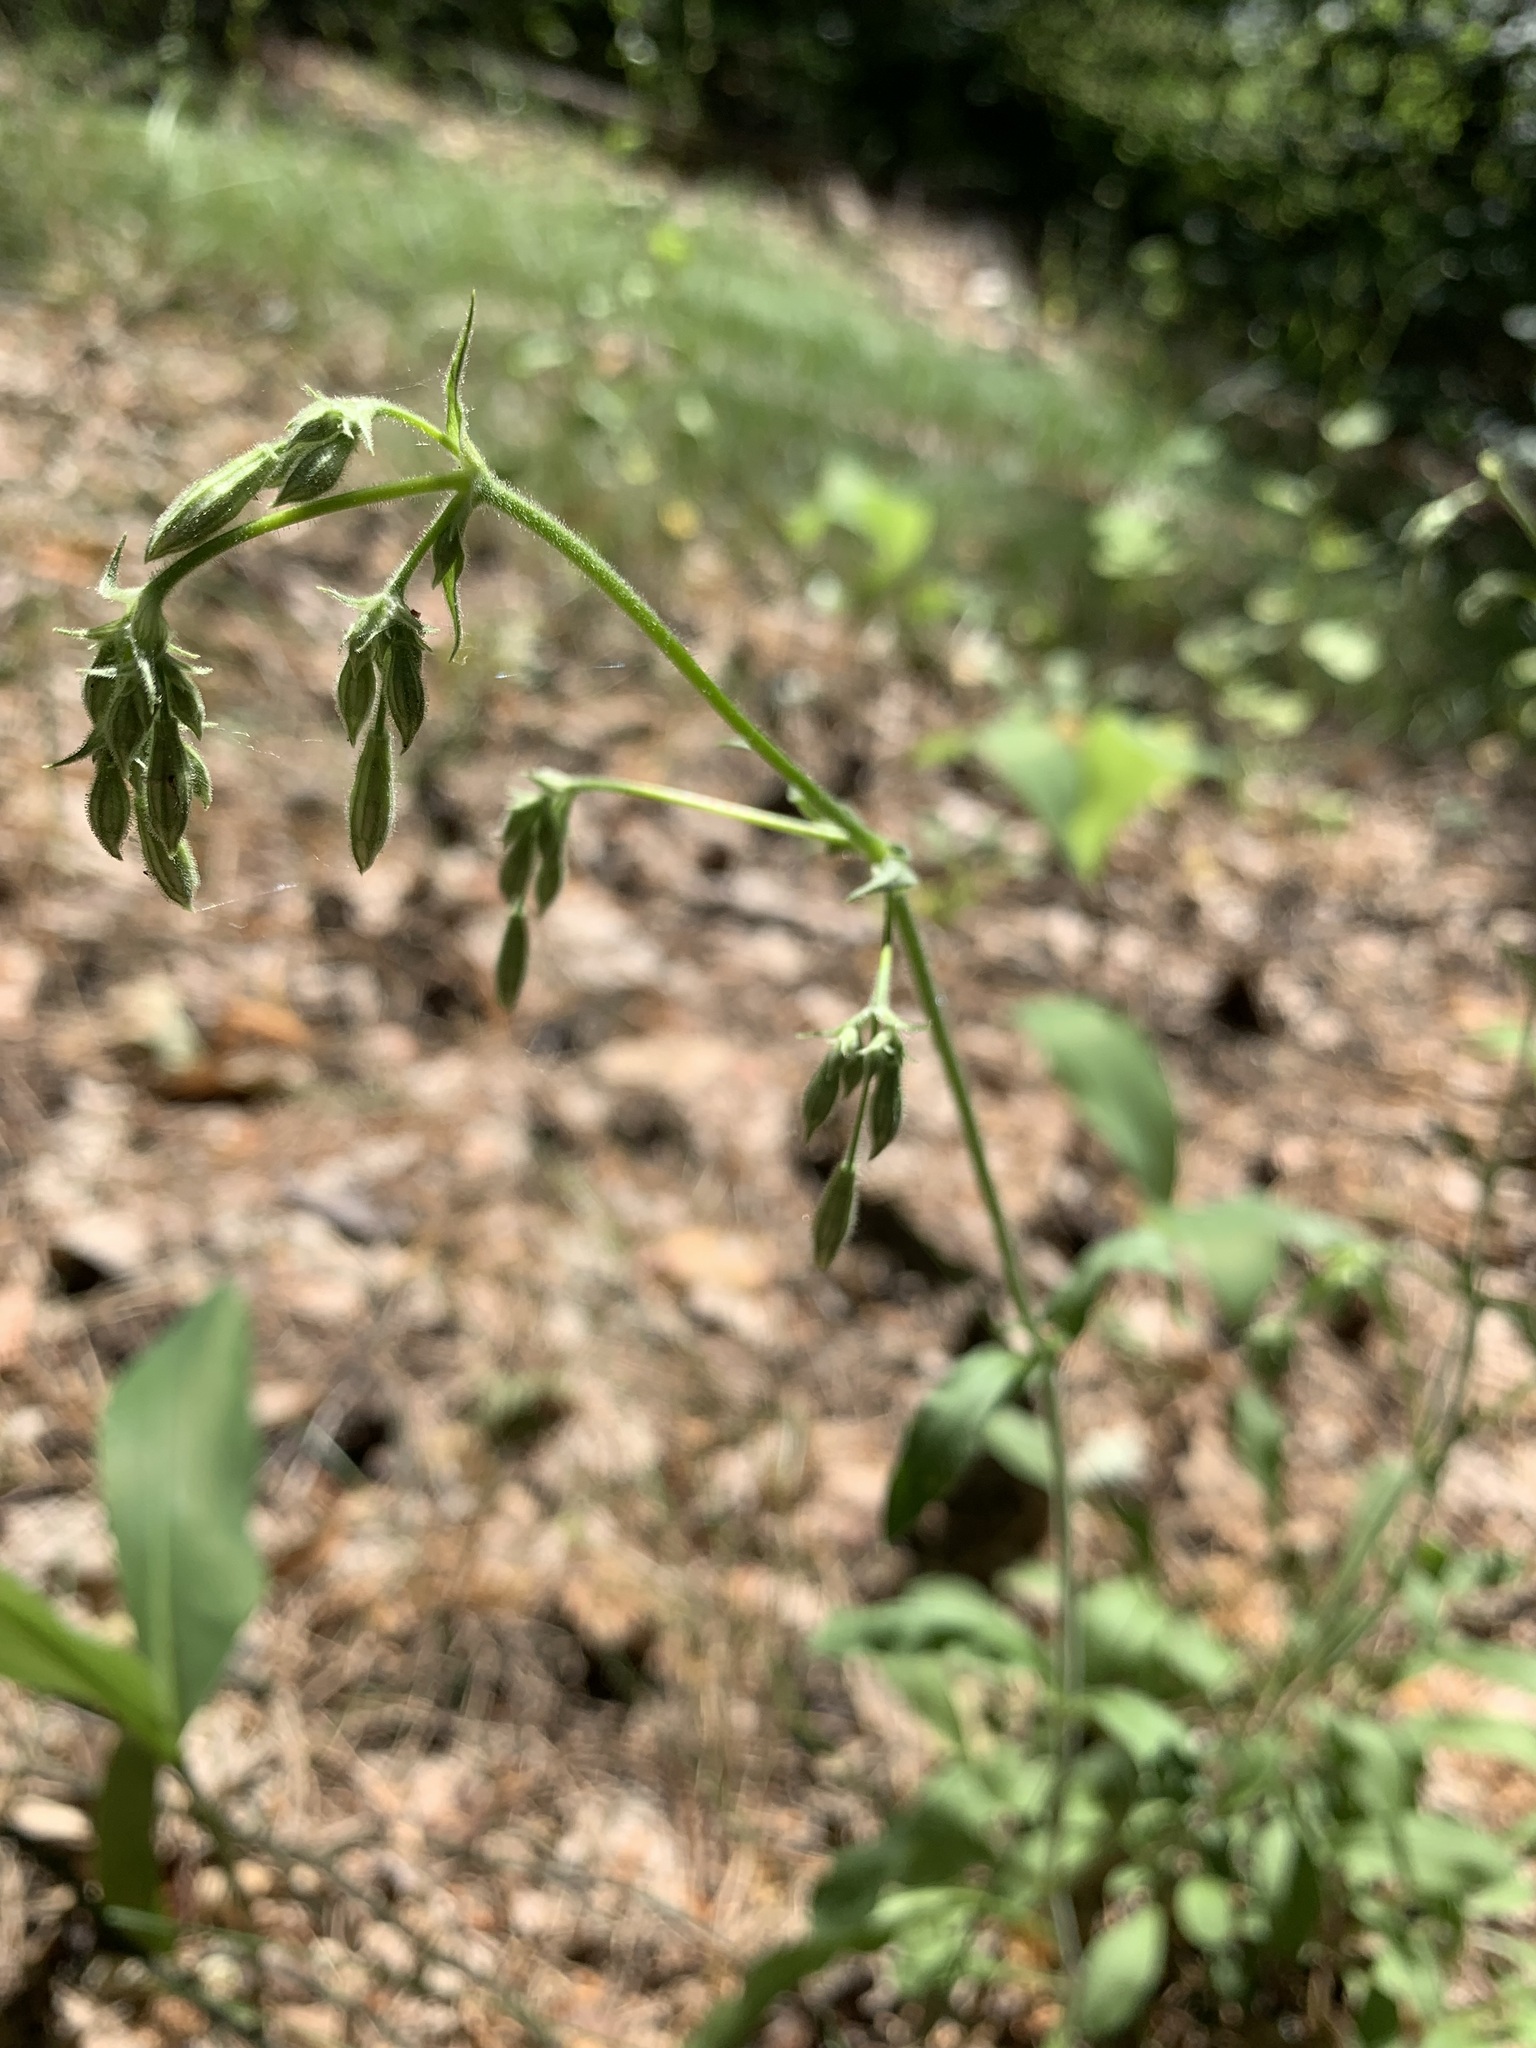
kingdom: Plantae
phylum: Tracheophyta
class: Magnoliopsida
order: Caryophyllales
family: Caryophyllaceae
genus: Silene
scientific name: Silene nutans
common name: Nottingham catchfly
